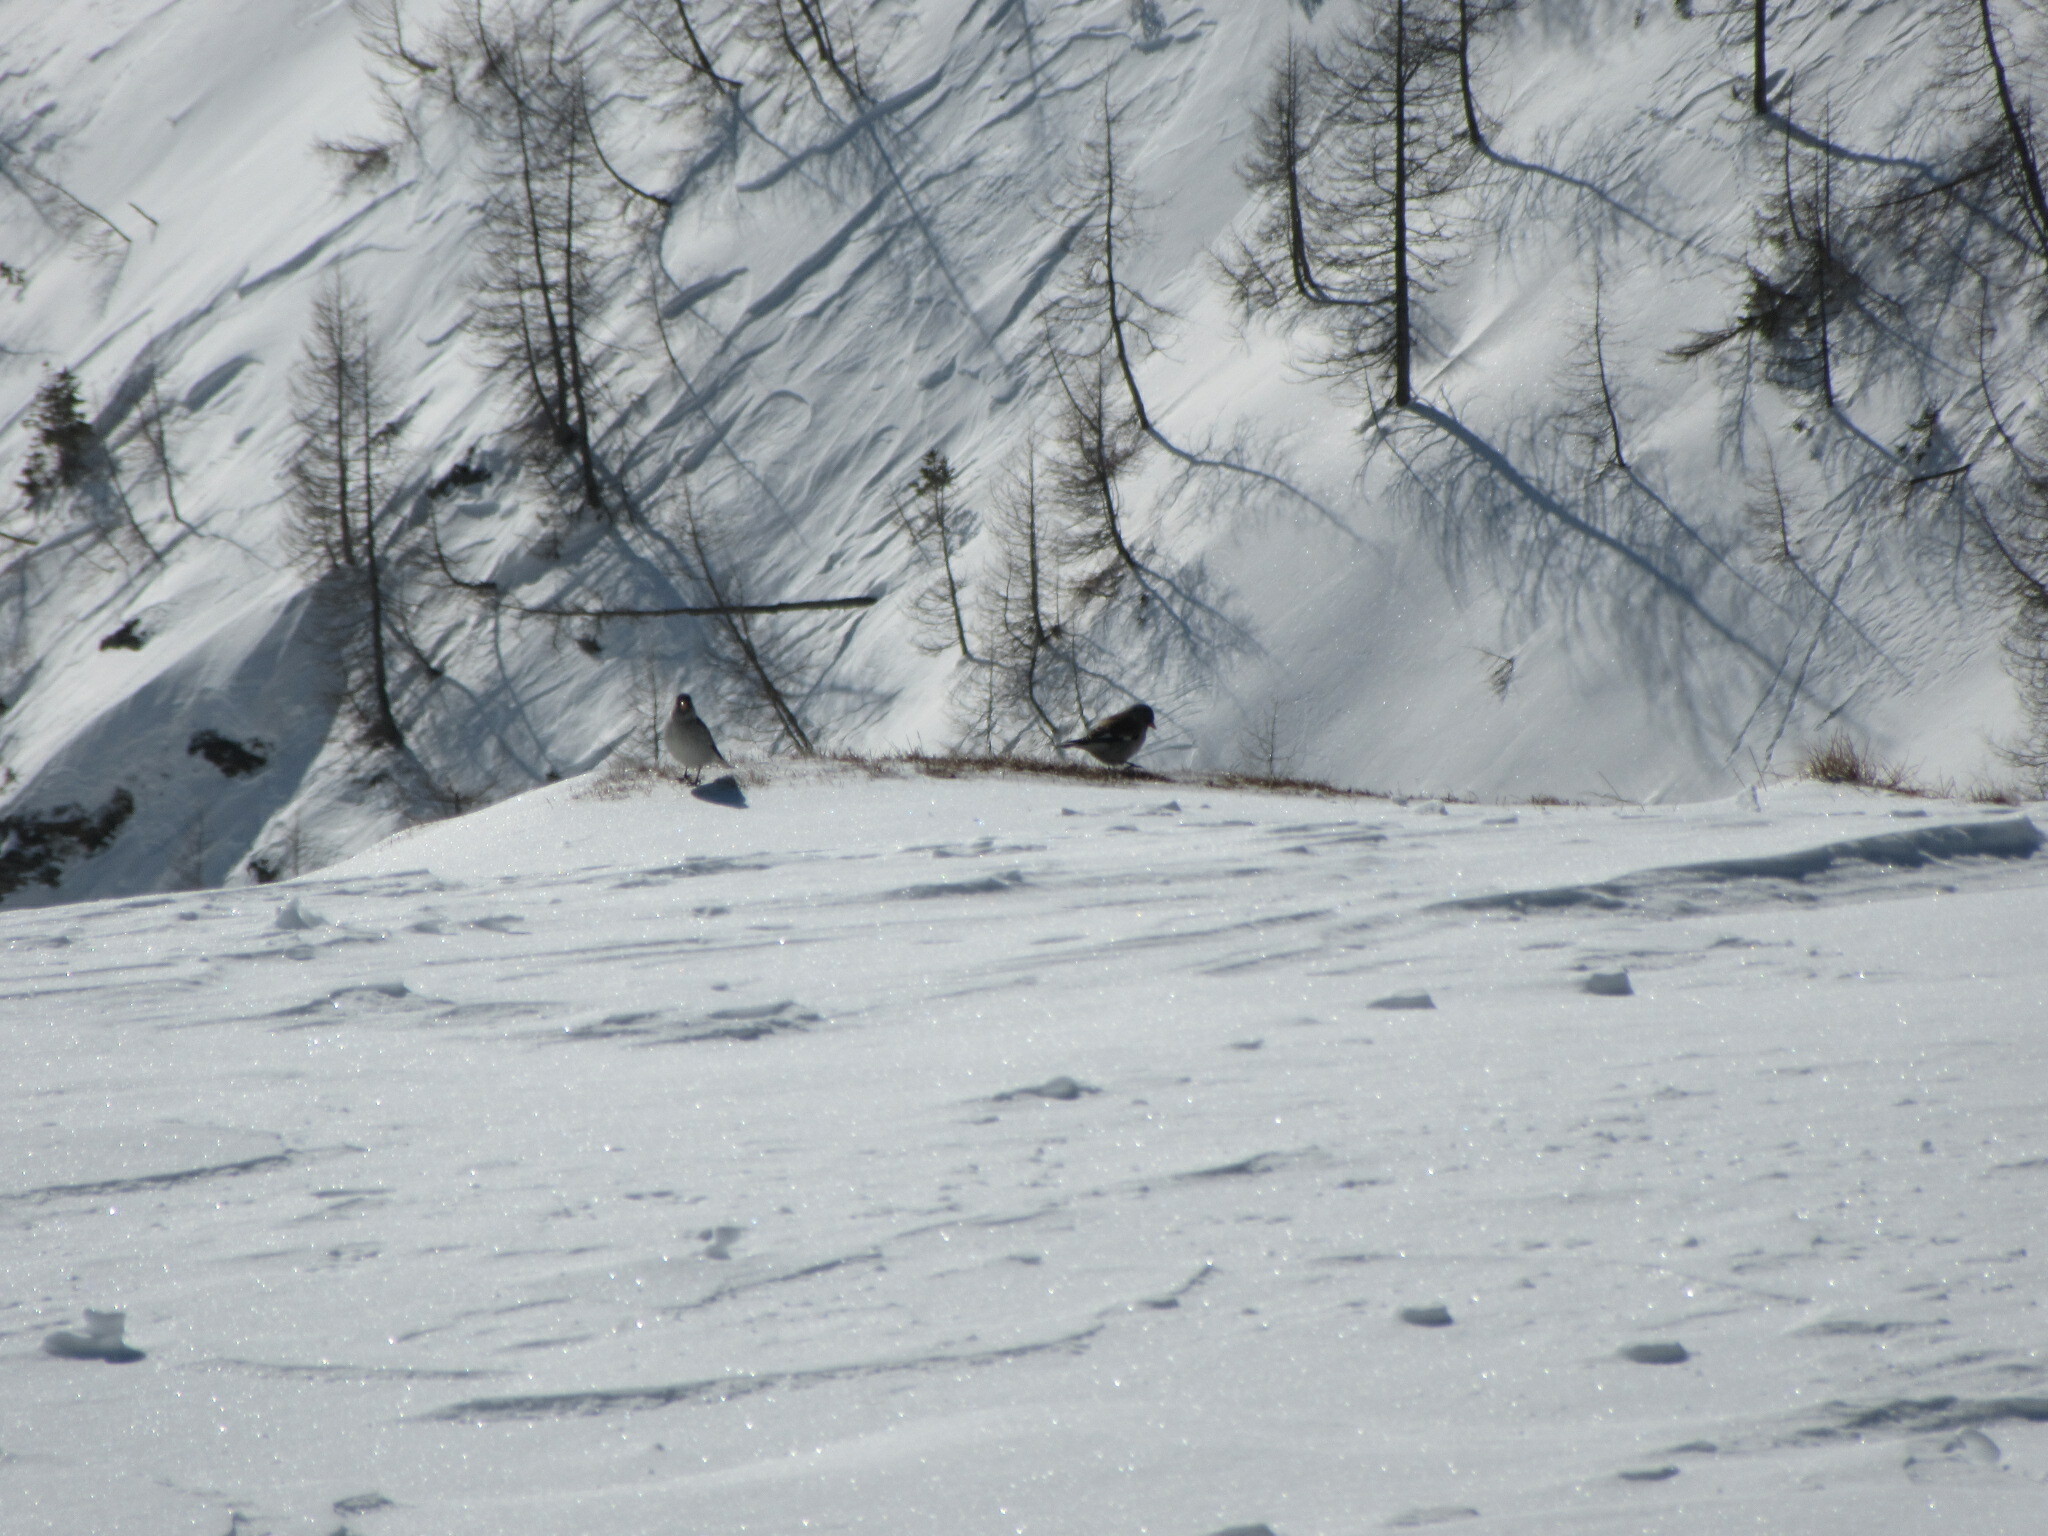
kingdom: Animalia
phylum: Chordata
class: Aves
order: Passeriformes
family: Passeridae
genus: Montifringilla
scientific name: Montifringilla nivalis
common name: White-winged snowfinch
